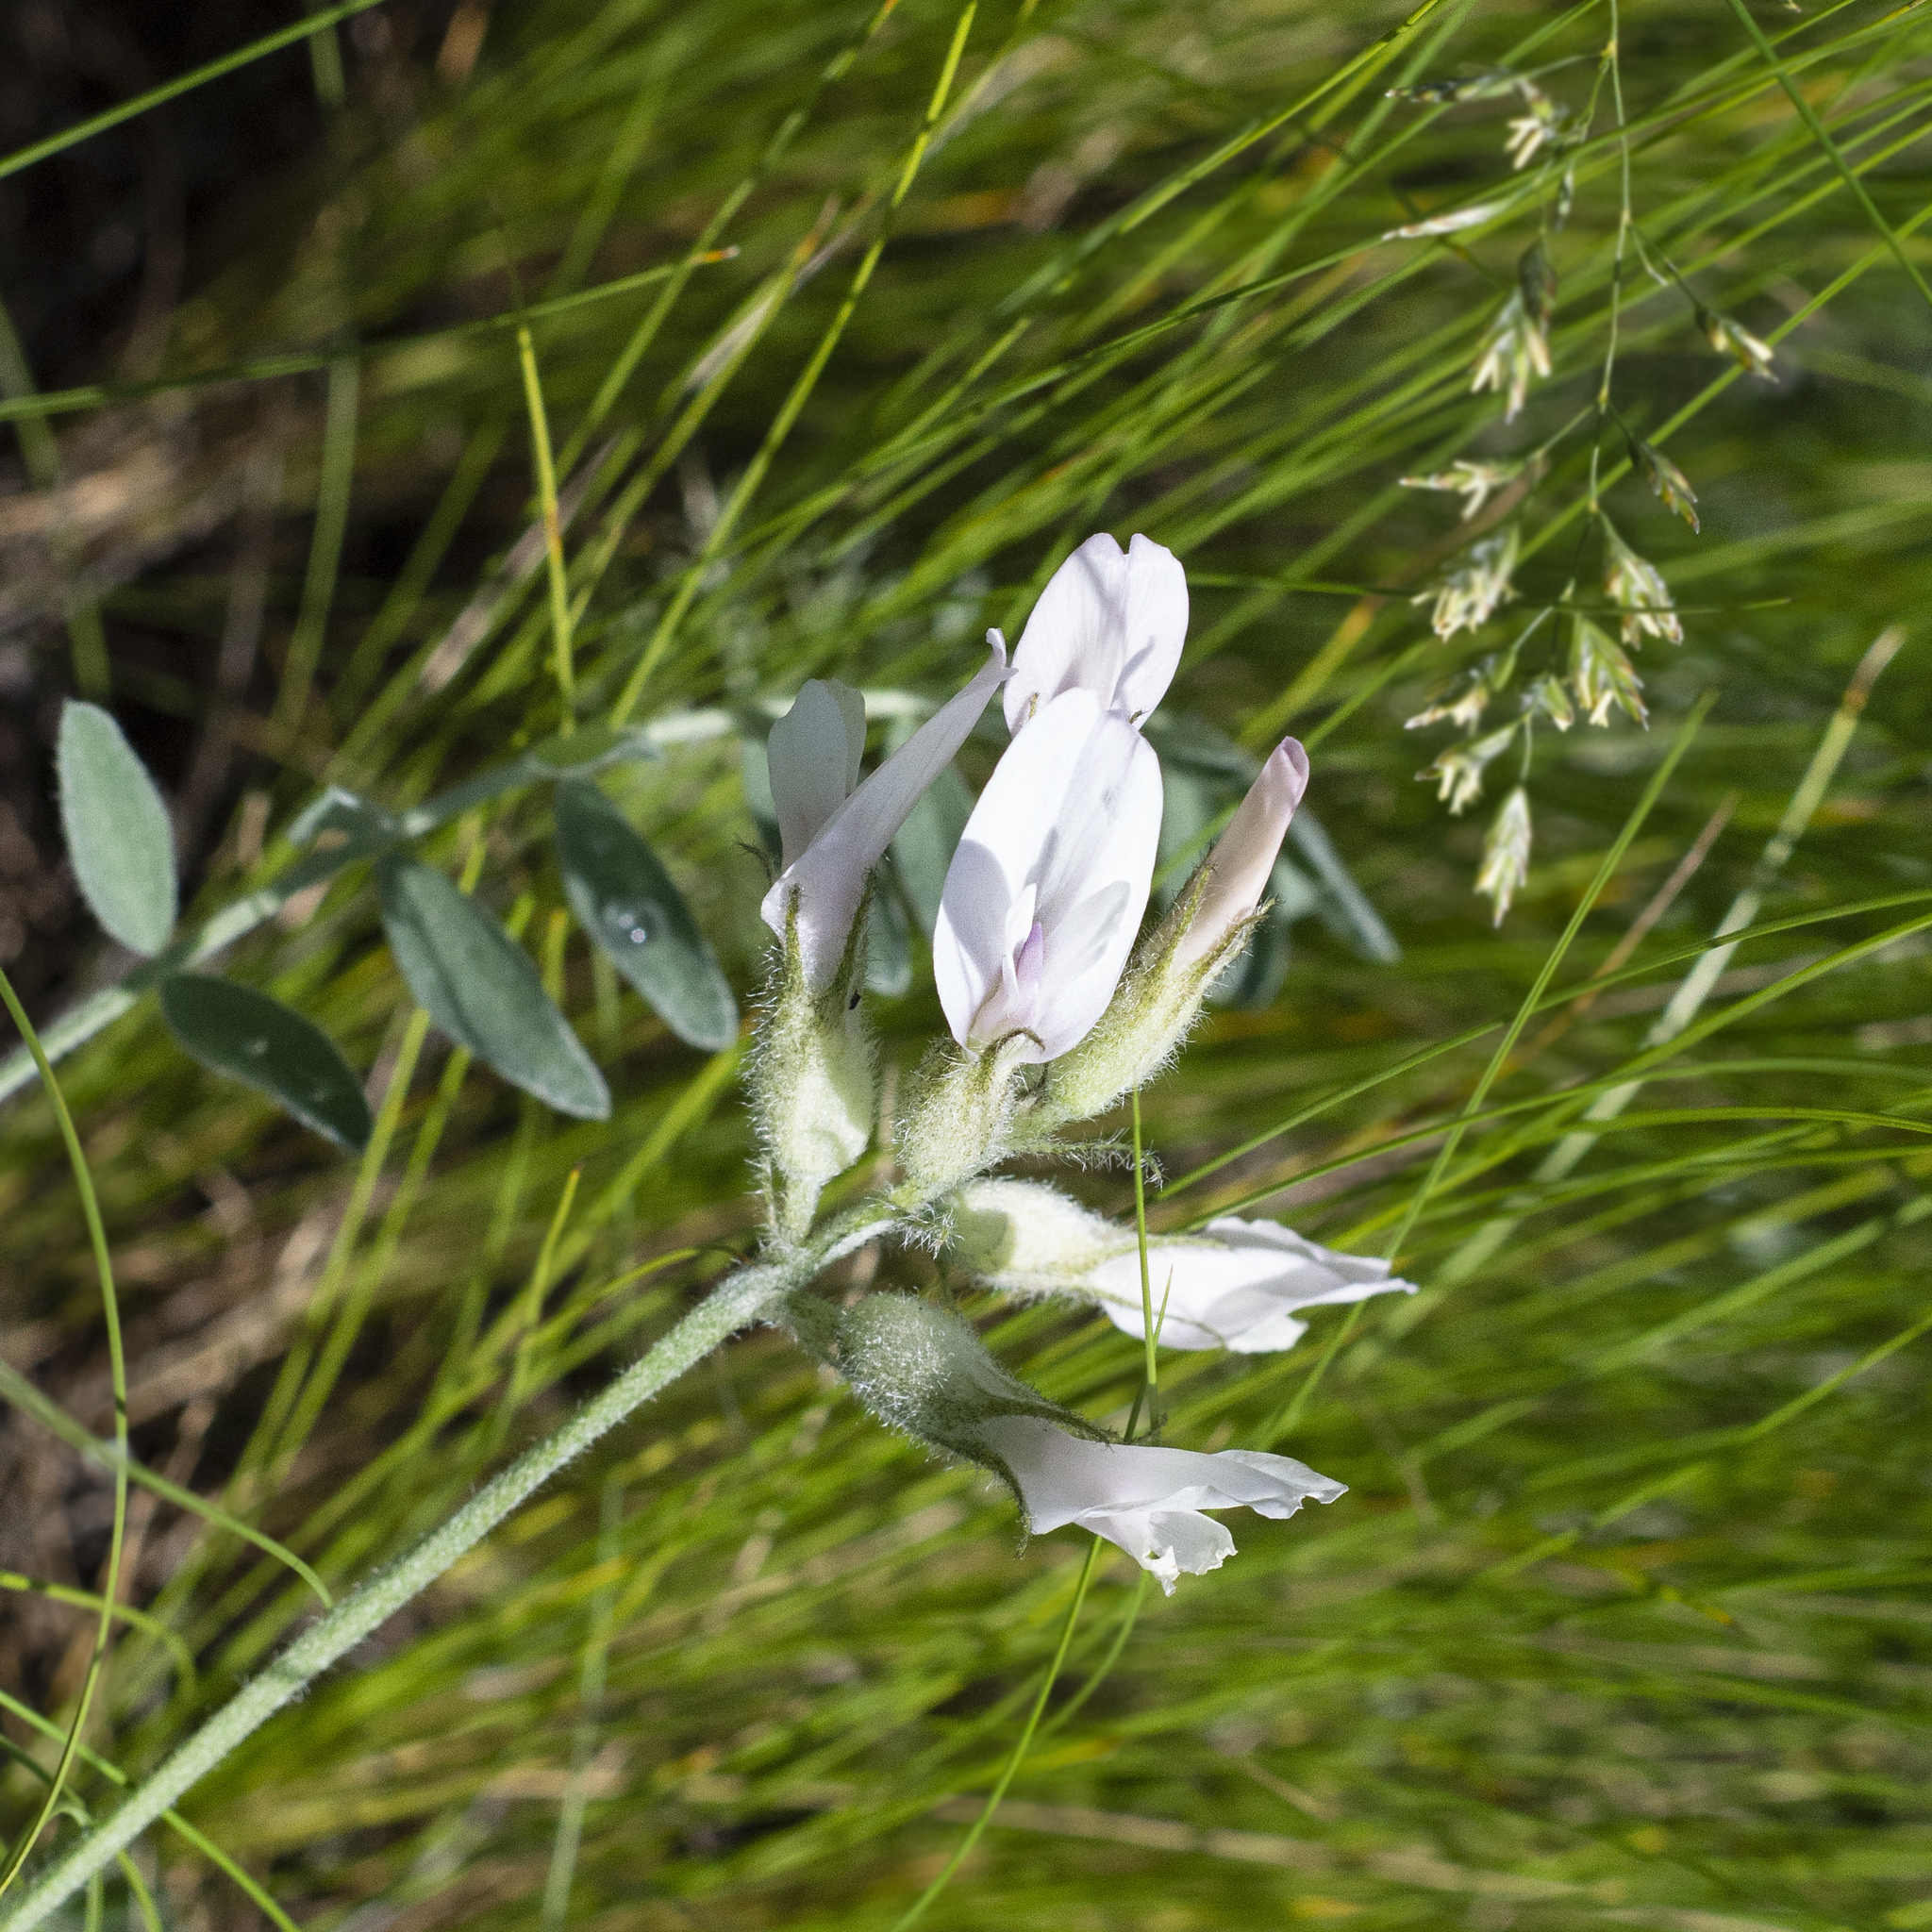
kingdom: Plantae
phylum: Tracheophyta
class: Magnoliopsida
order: Fabales
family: Fabaceae
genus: Astragalus
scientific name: Astragalus zingeri
